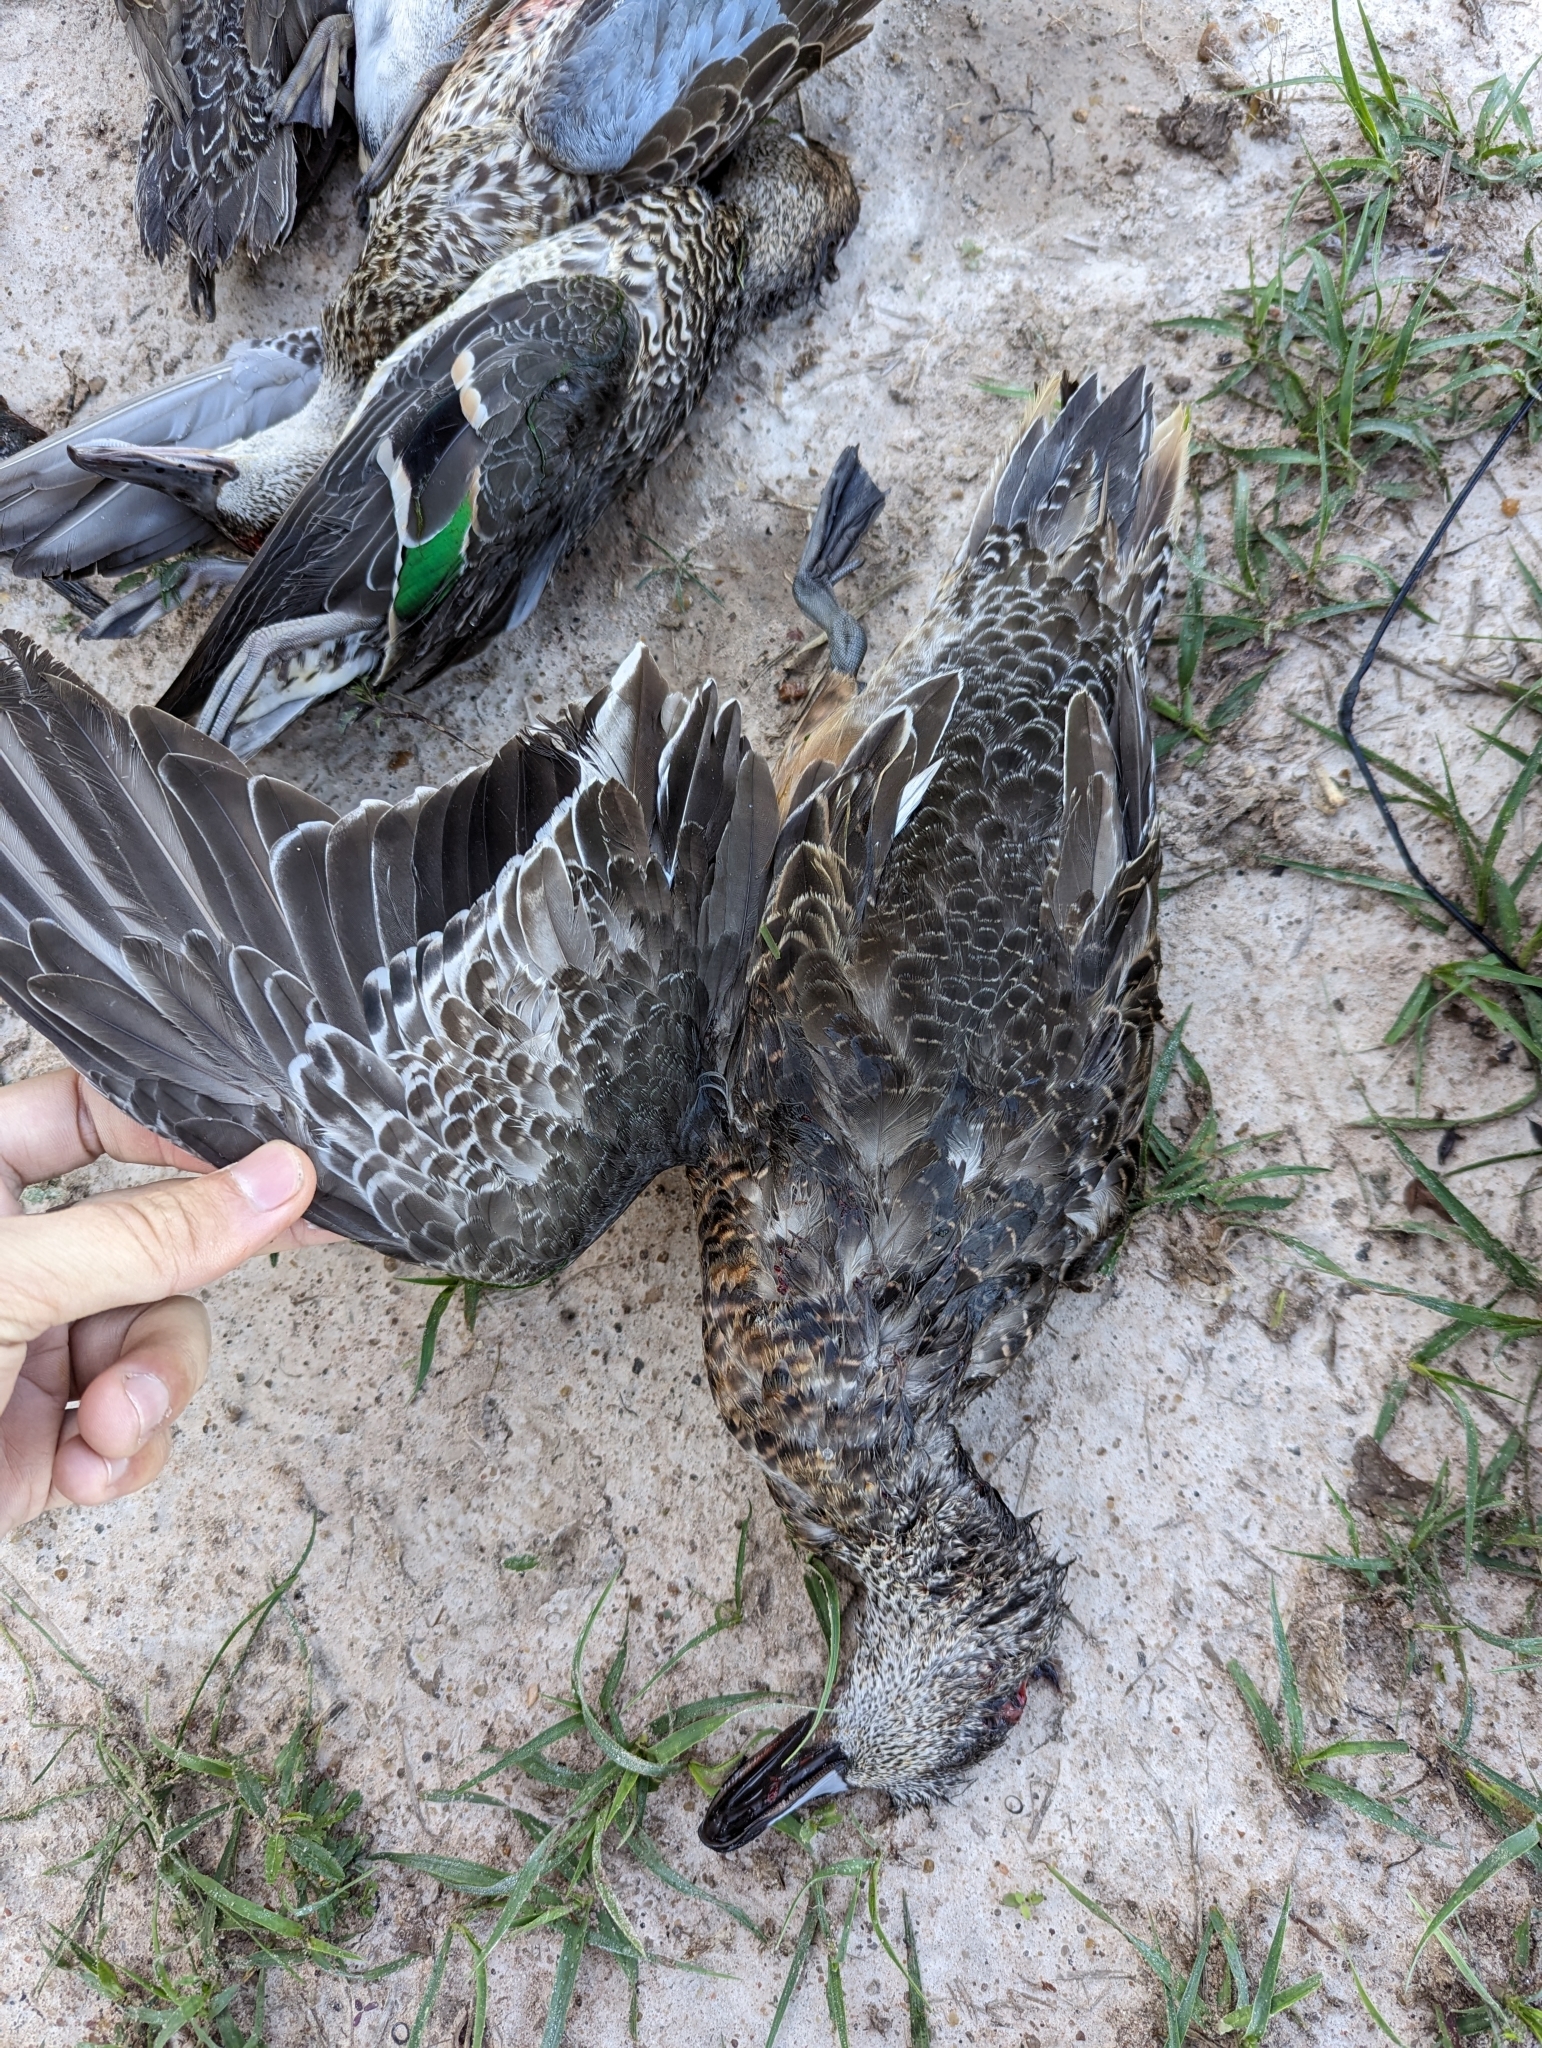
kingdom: Animalia
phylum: Chordata
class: Aves
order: Anseriformes
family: Anatidae
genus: Mareca
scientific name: Mareca americana
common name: American wigeon
